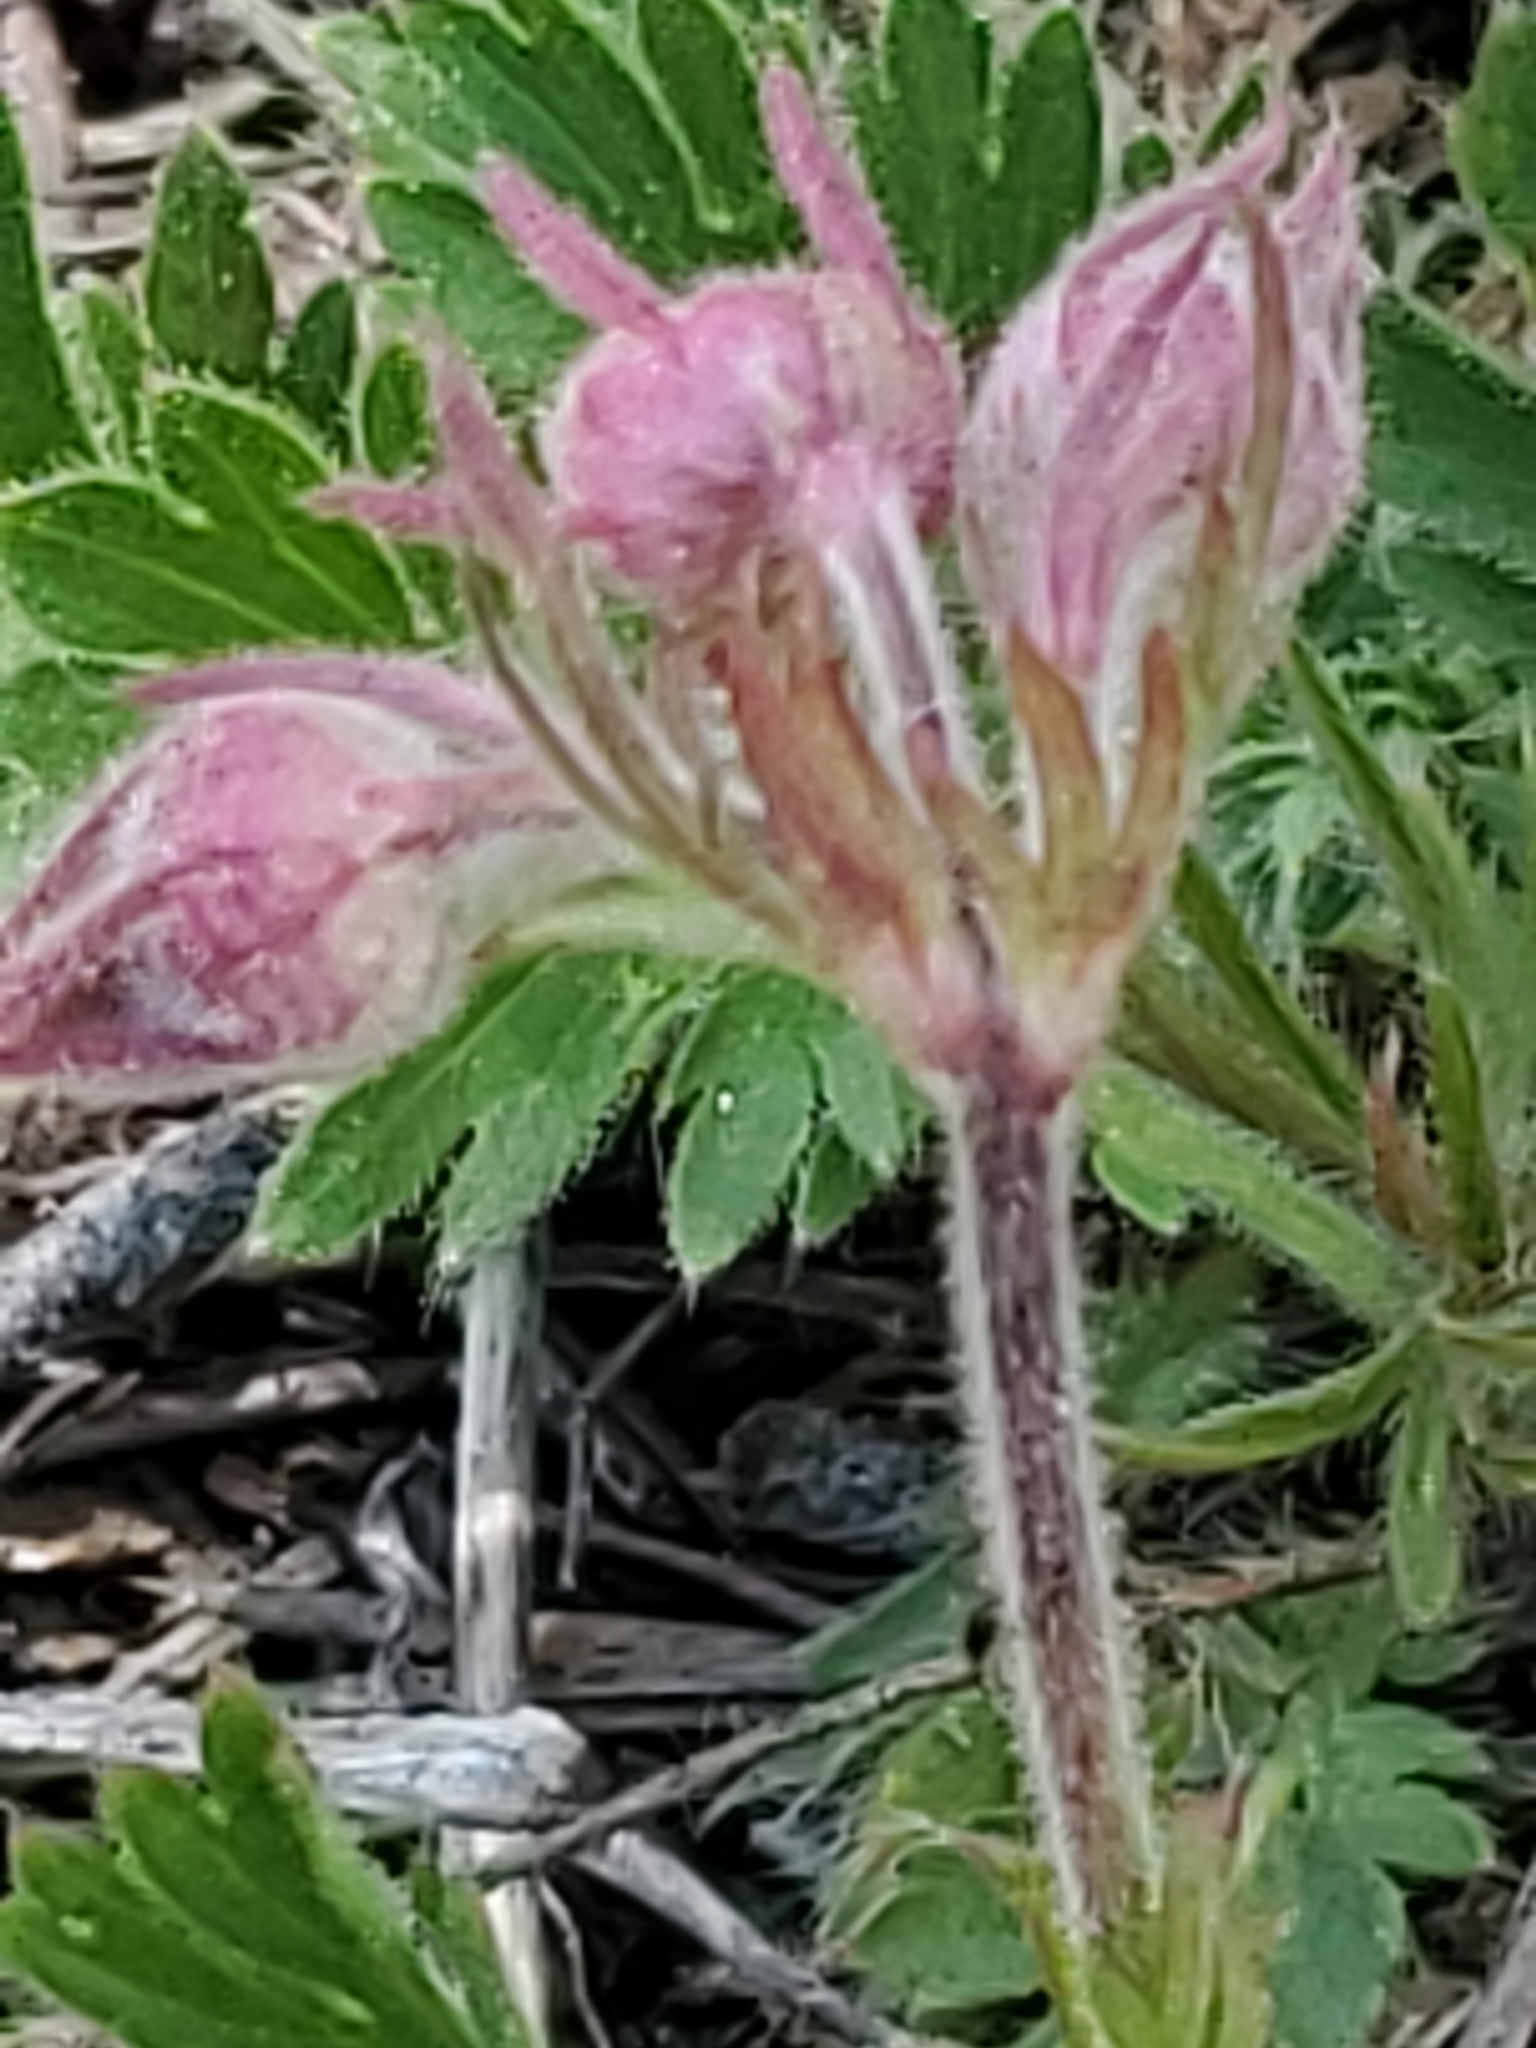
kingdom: Plantae
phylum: Tracheophyta
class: Magnoliopsida
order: Rosales
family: Rosaceae
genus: Geum
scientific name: Geum triflorum
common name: Old man's whiskers
